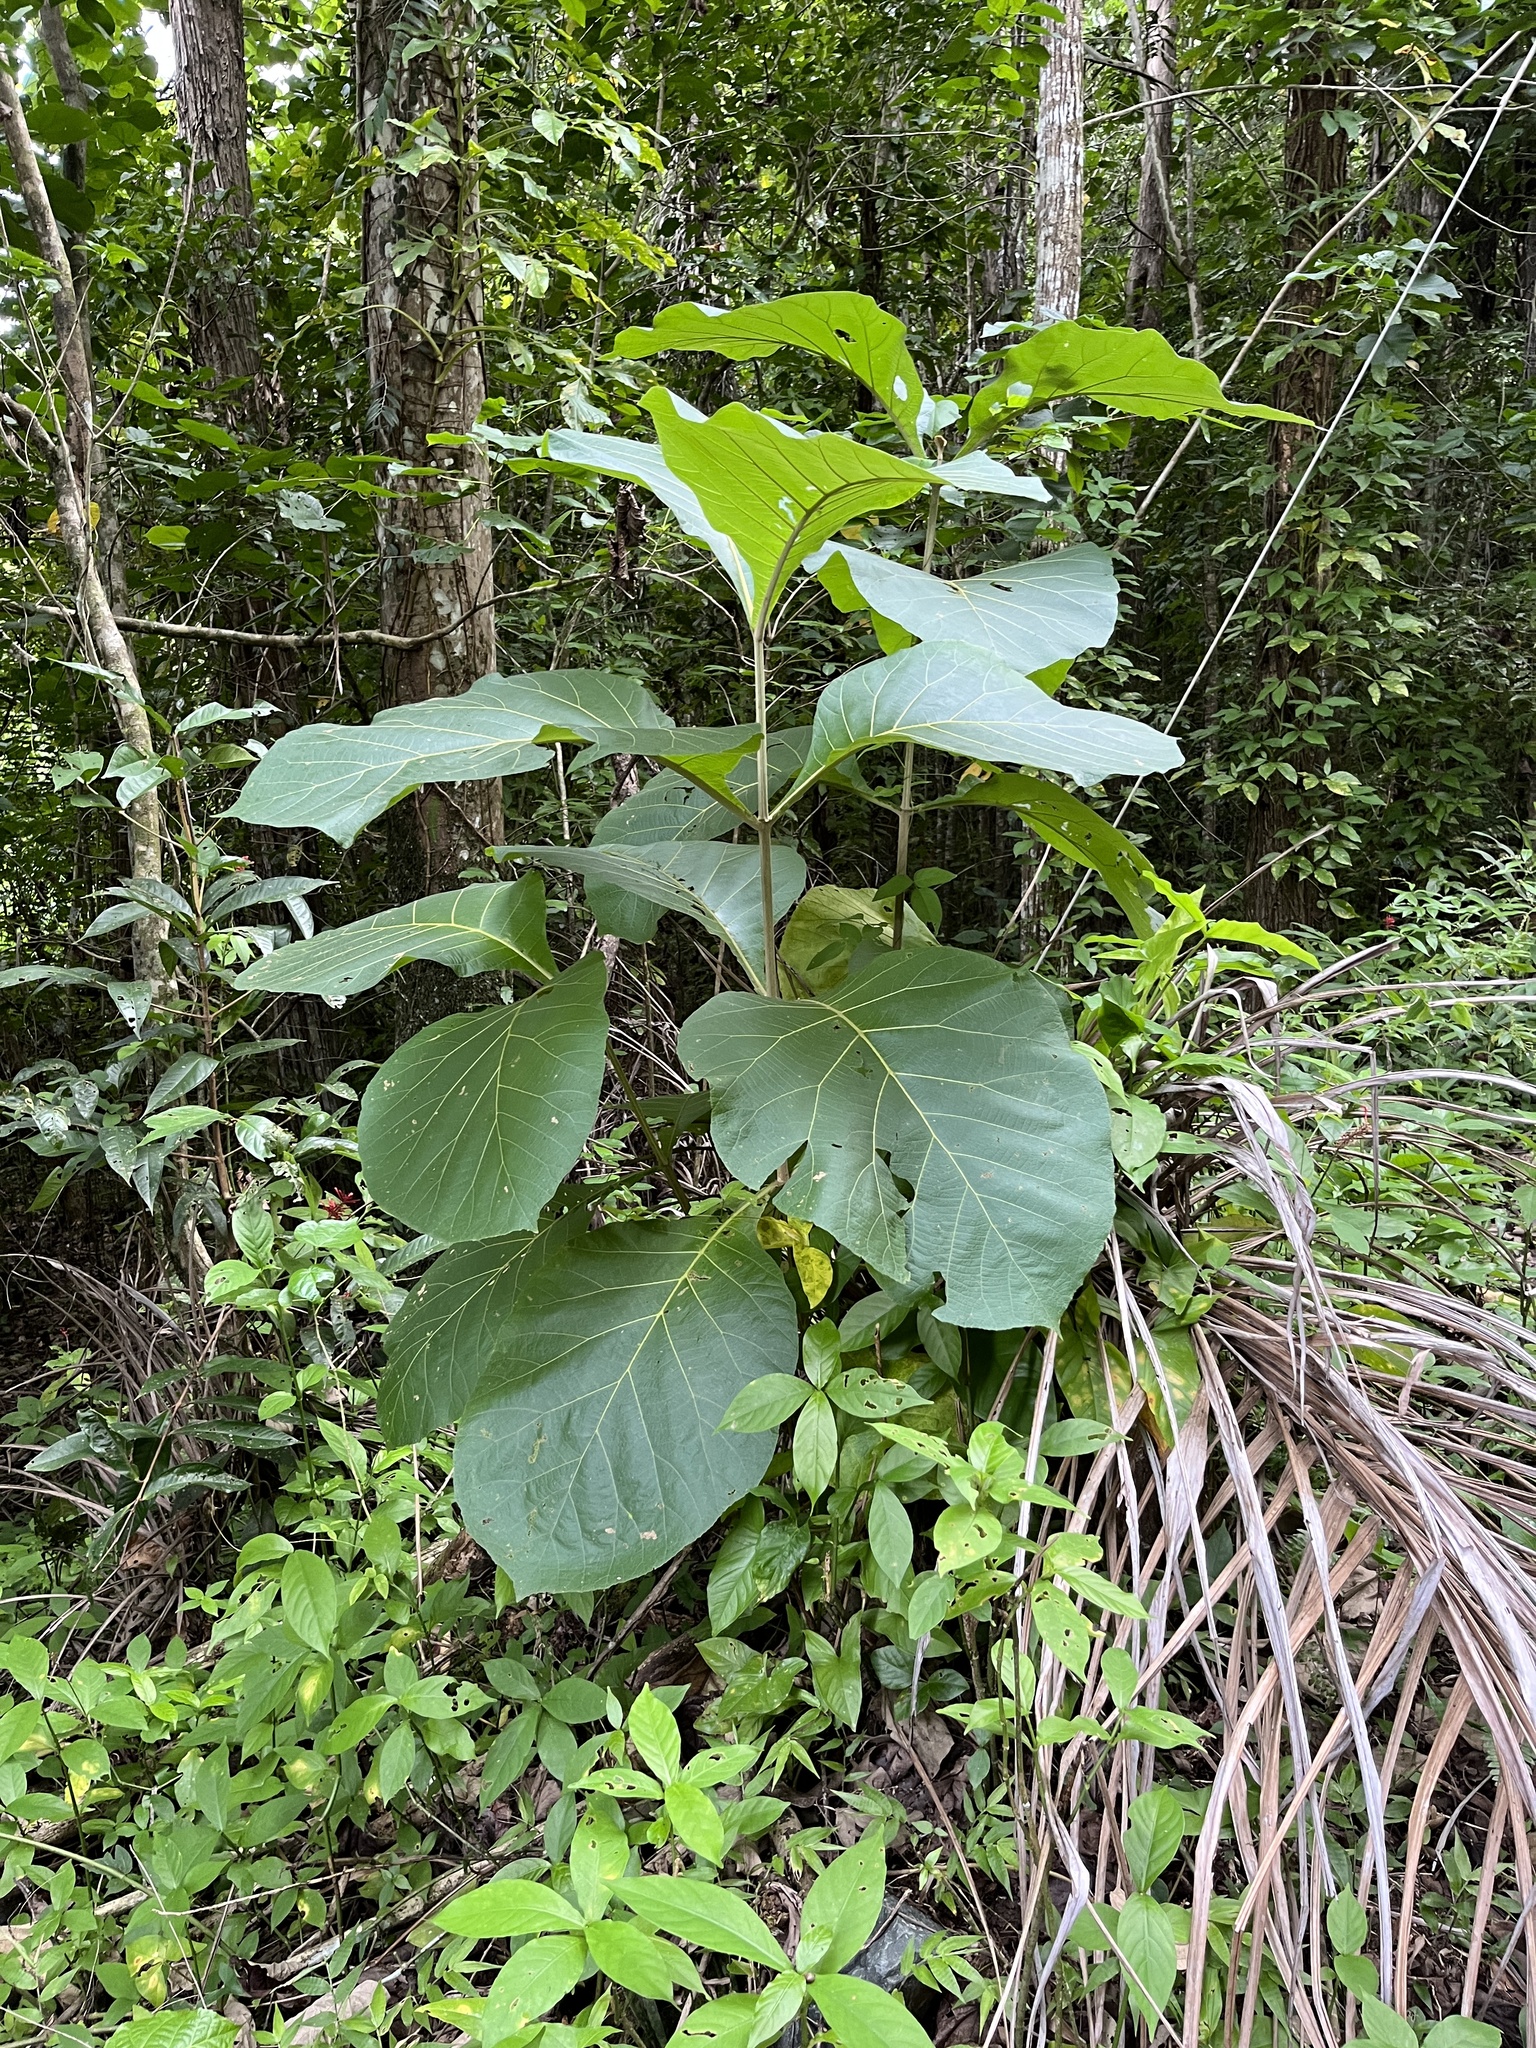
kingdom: Plantae
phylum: Tracheophyta
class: Magnoliopsida
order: Lamiales
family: Lamiaceae
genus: Tectona
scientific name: Tectona grandis
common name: Teak
